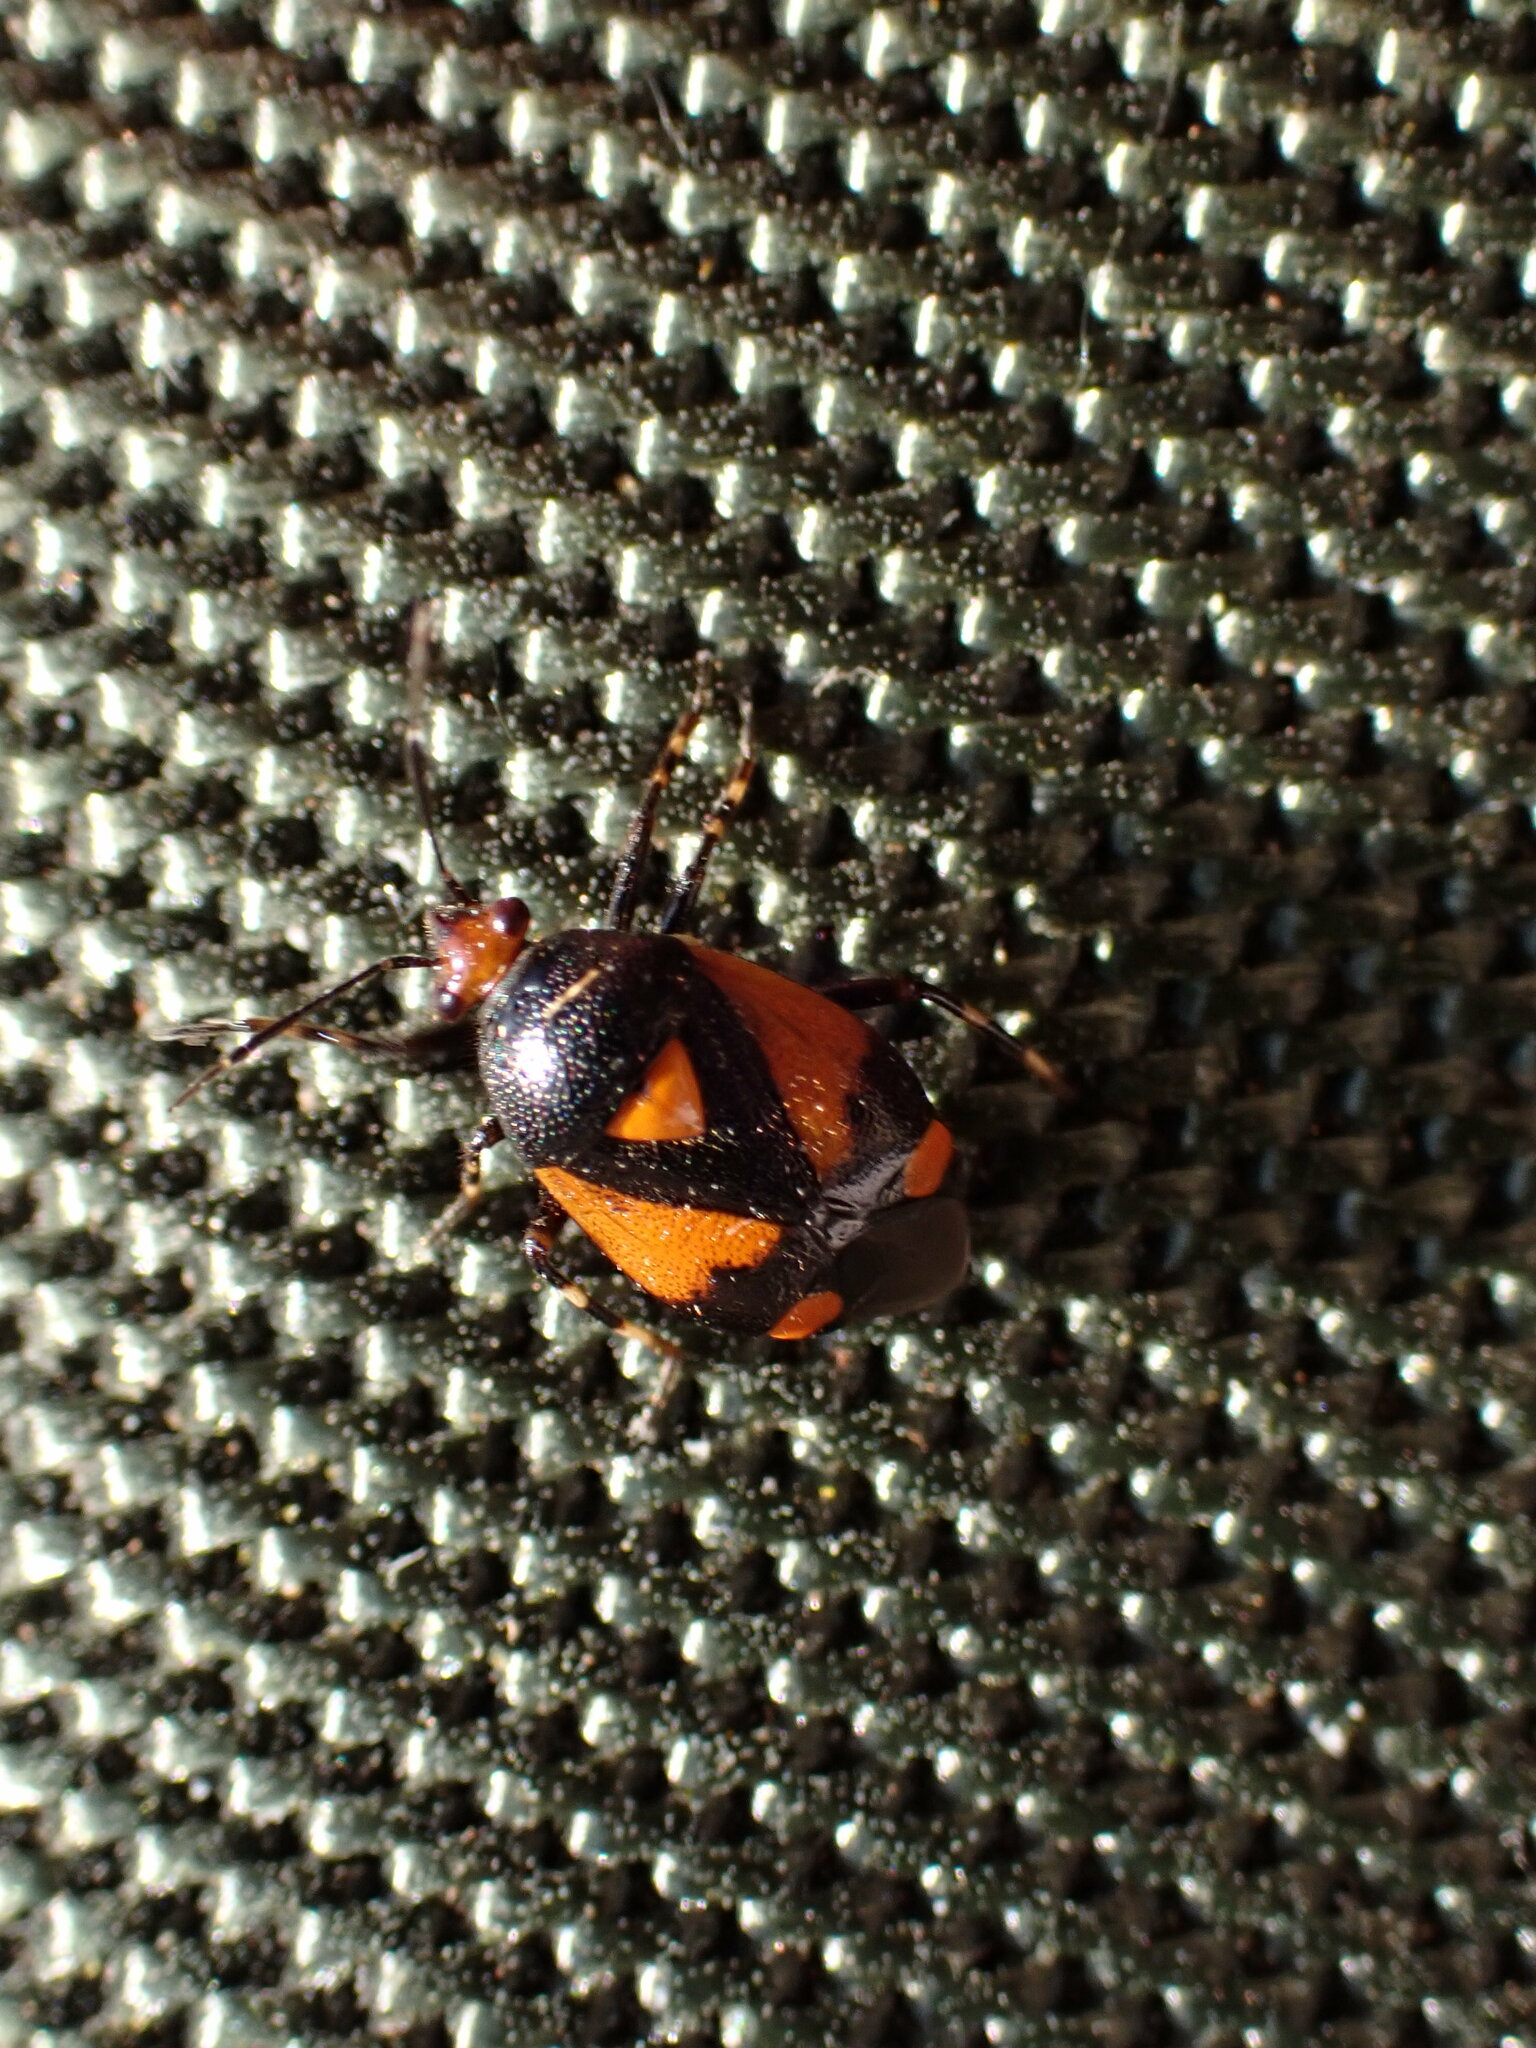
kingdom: Animalia
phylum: Arthropoda
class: Insecta
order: Hemiptera
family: Miridae
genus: Deraeocoris
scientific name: Deraeocoris schach
